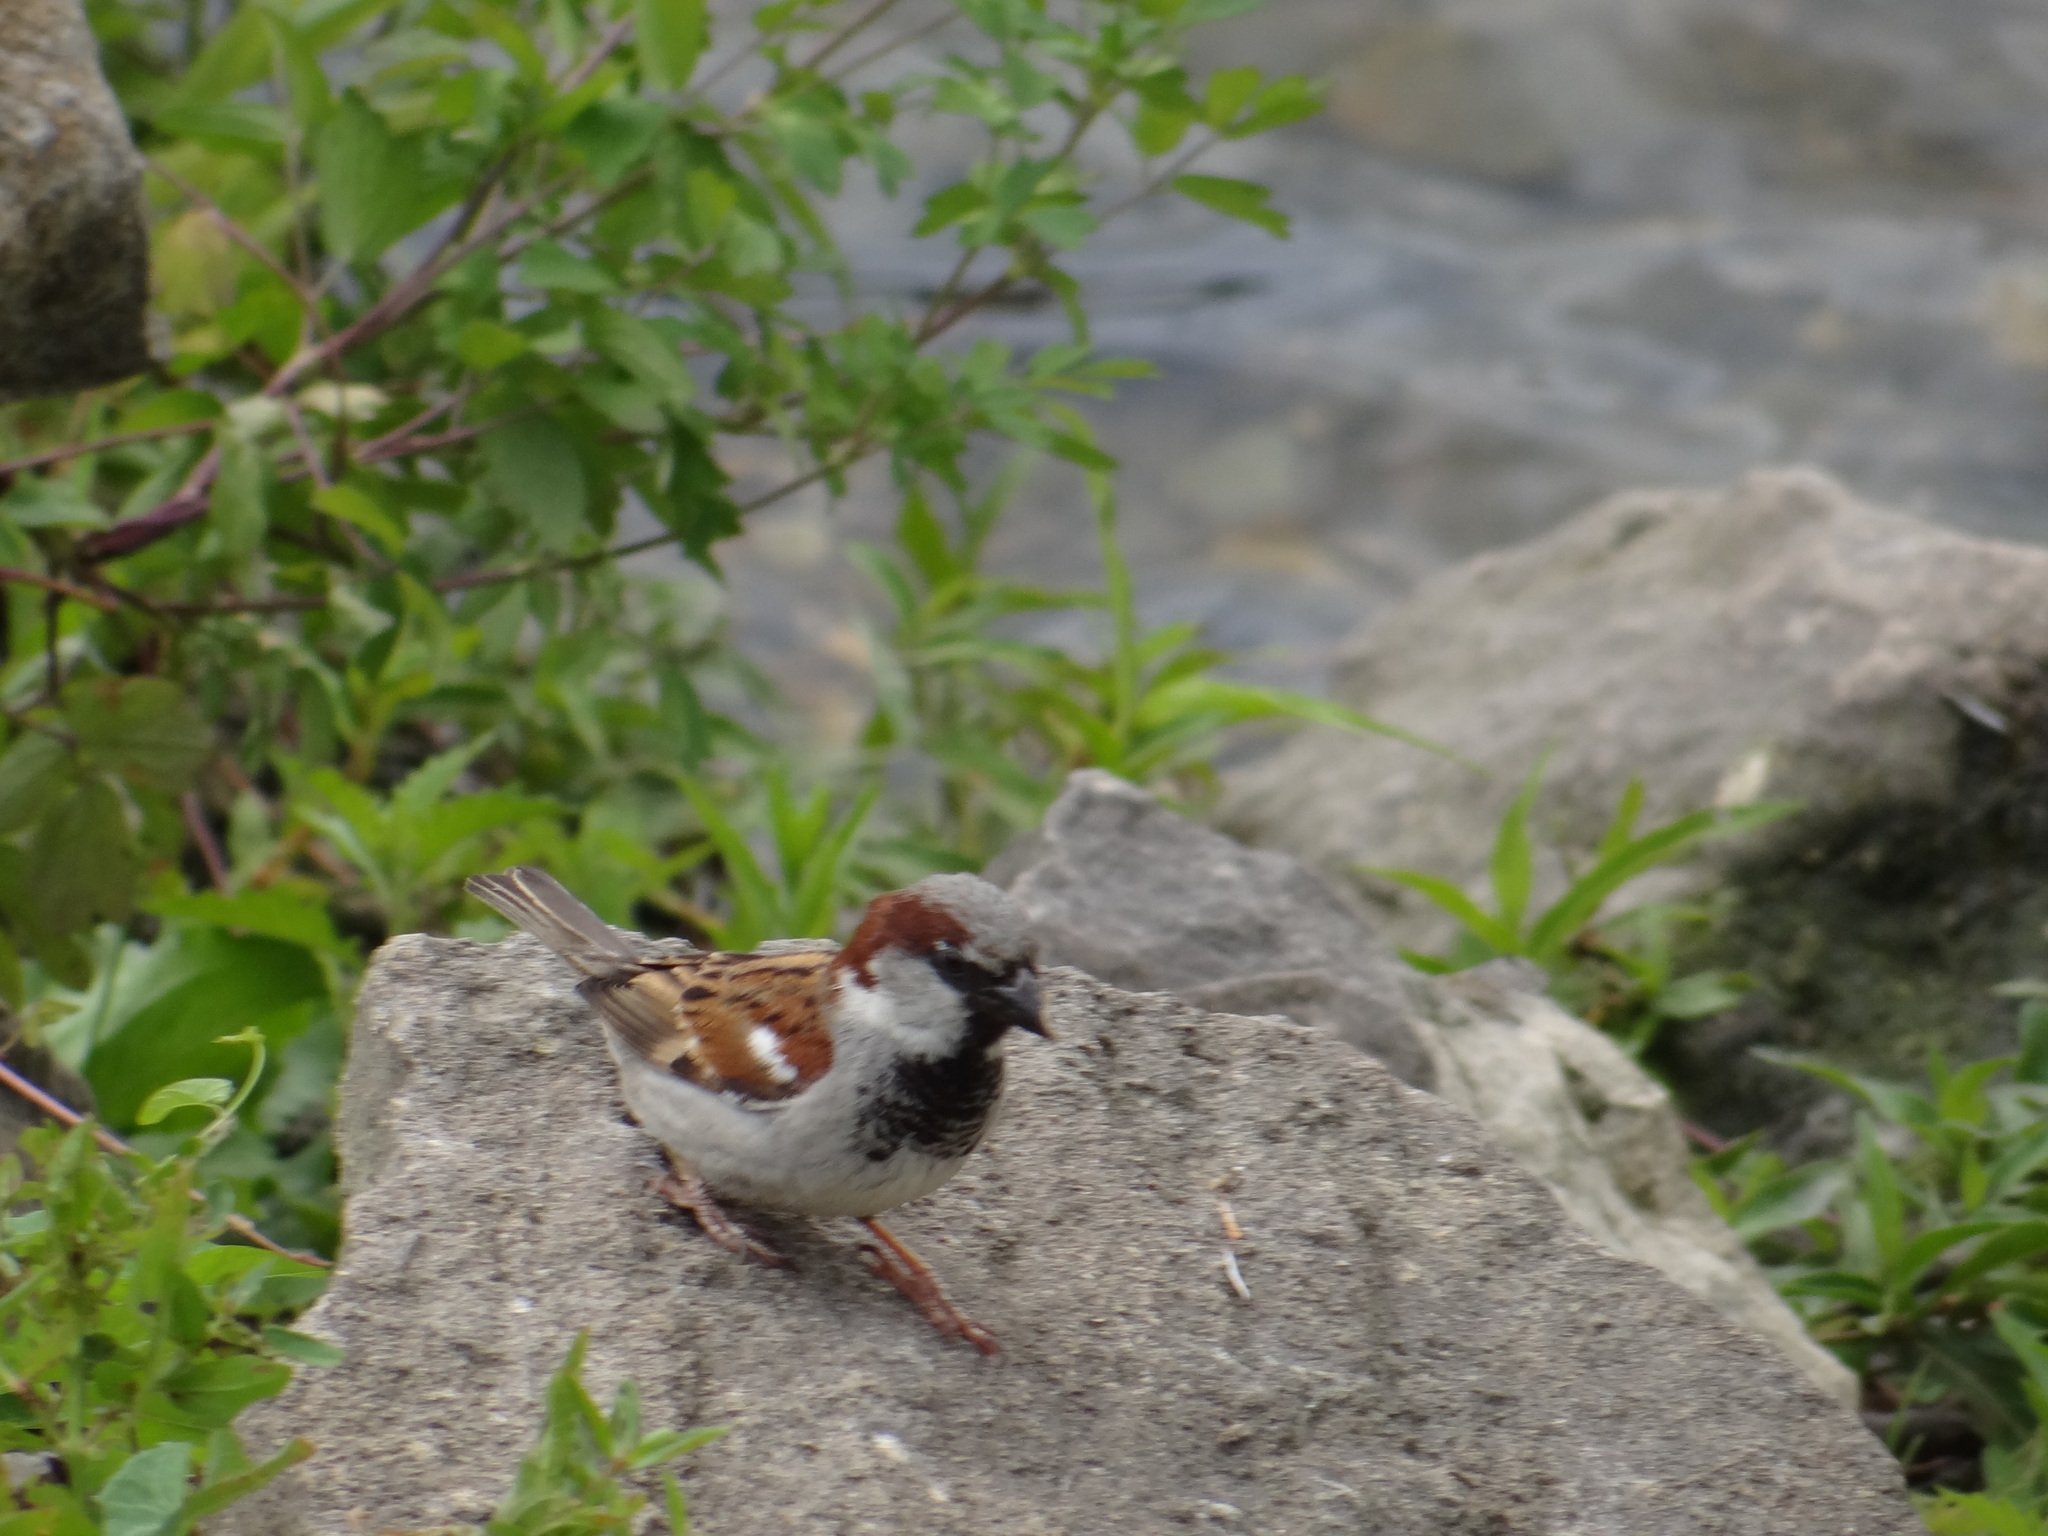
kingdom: Animalia
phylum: Chordata
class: Aves
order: Passeriformes
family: Passeridae
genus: Passer
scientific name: Passer domesticus
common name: House sparrow
